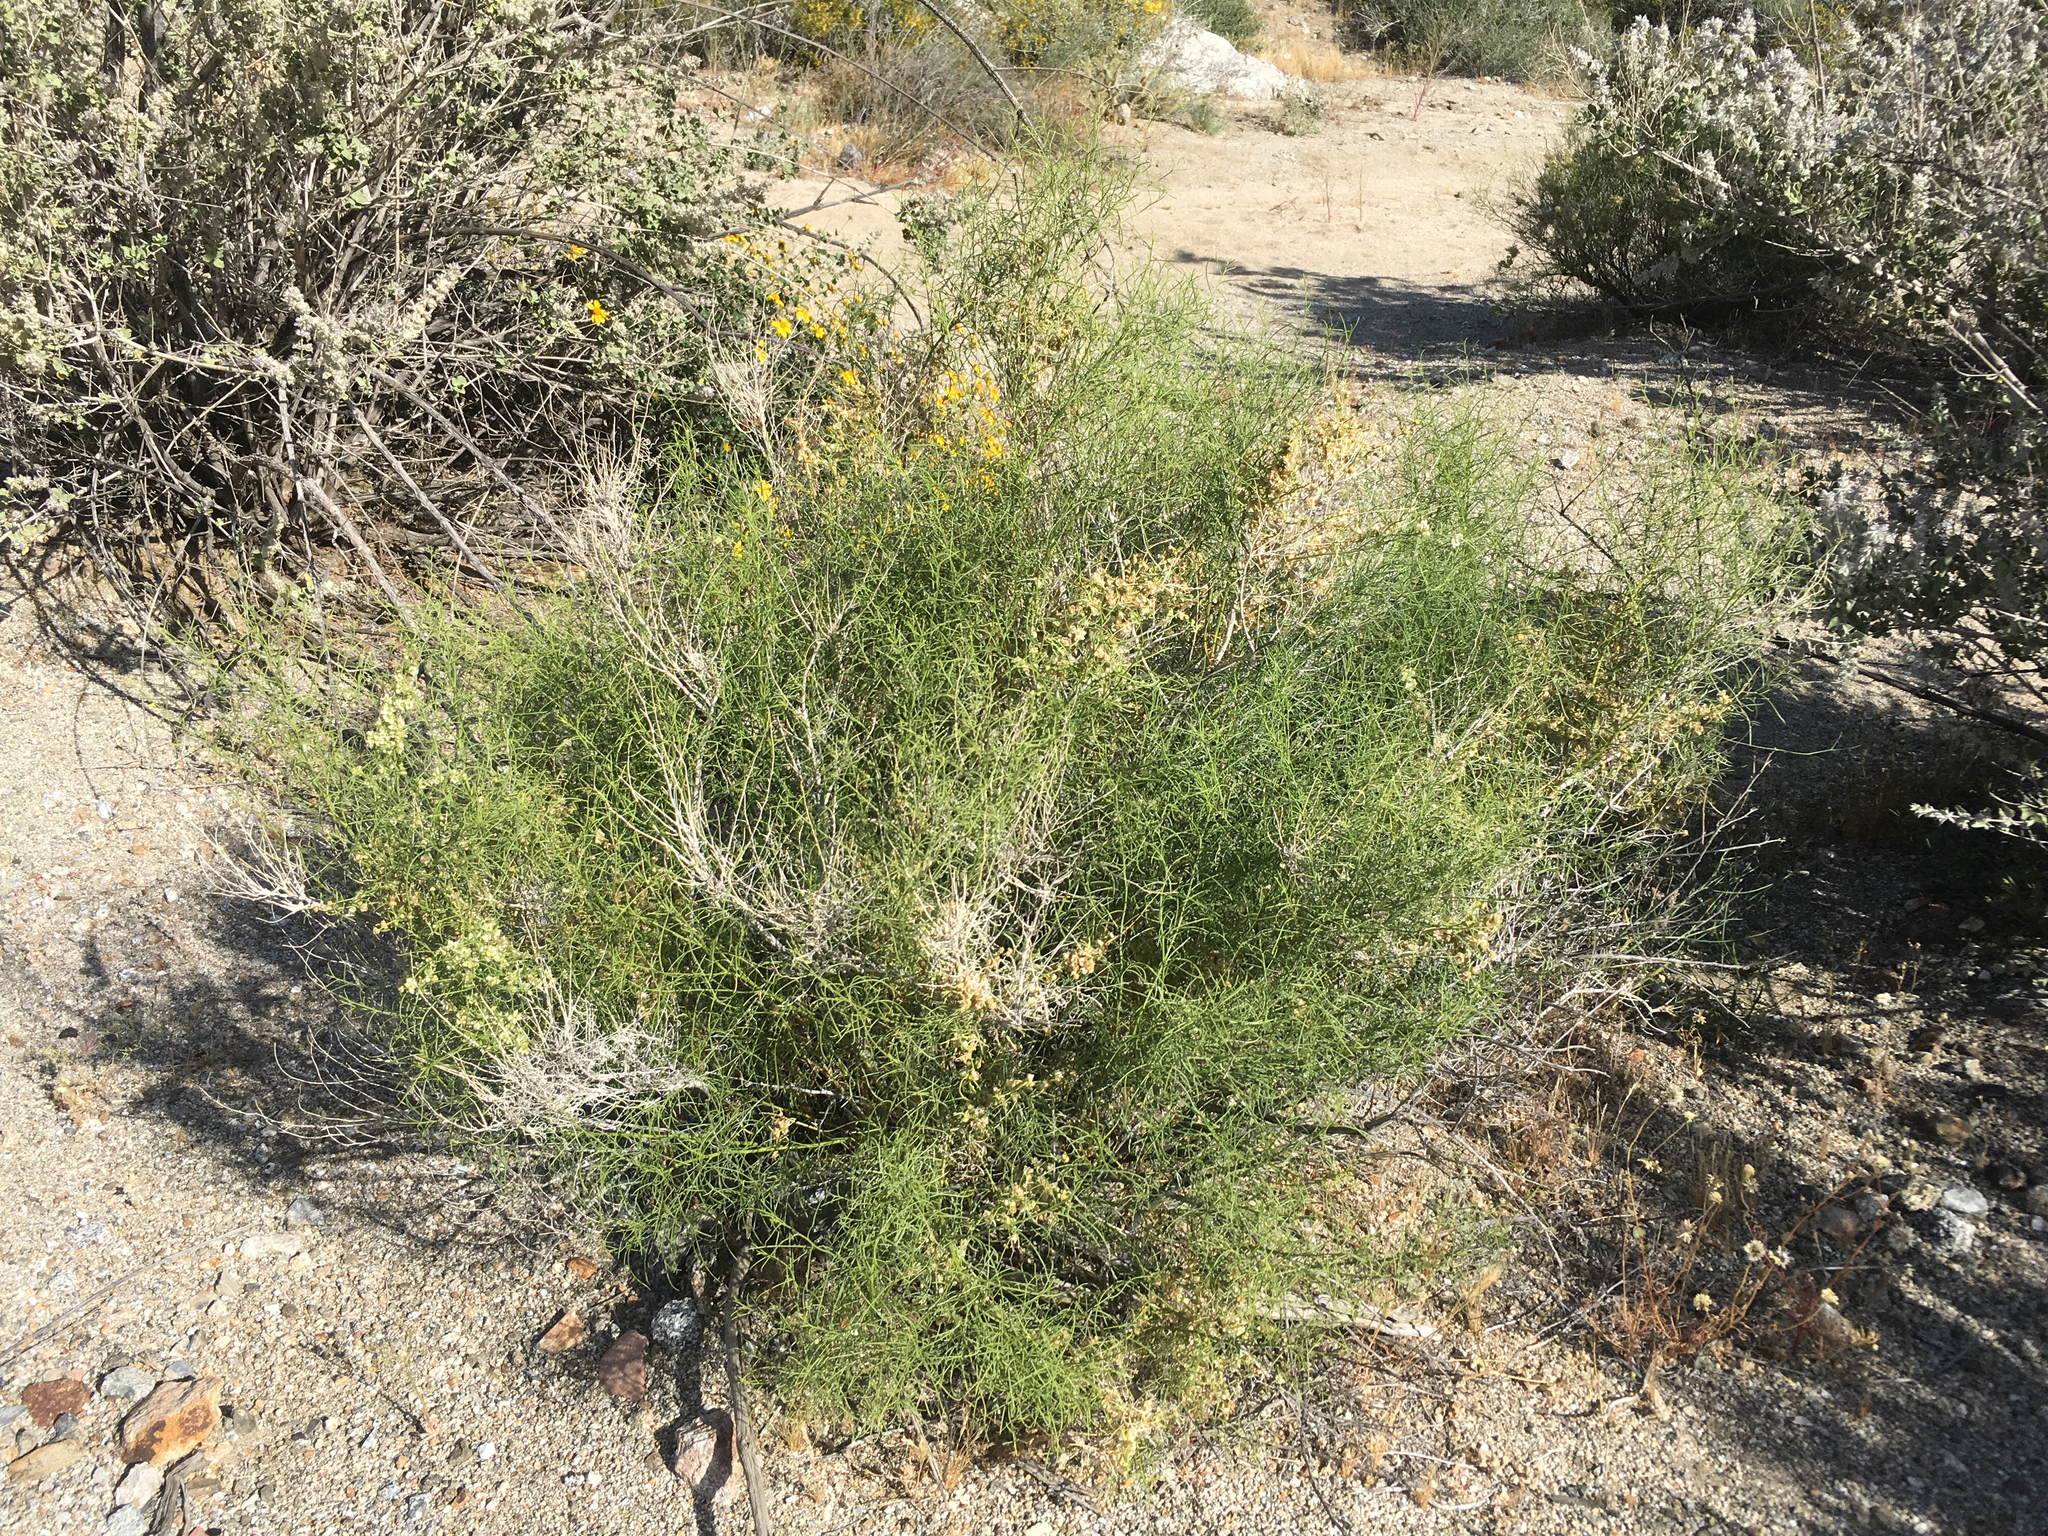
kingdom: Plantae
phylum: Tracheophyta
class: Magnoliopsida
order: Asterales
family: Asteraceae
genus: Ambrosia
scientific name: Ambrosia salsola
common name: Burrobrush
